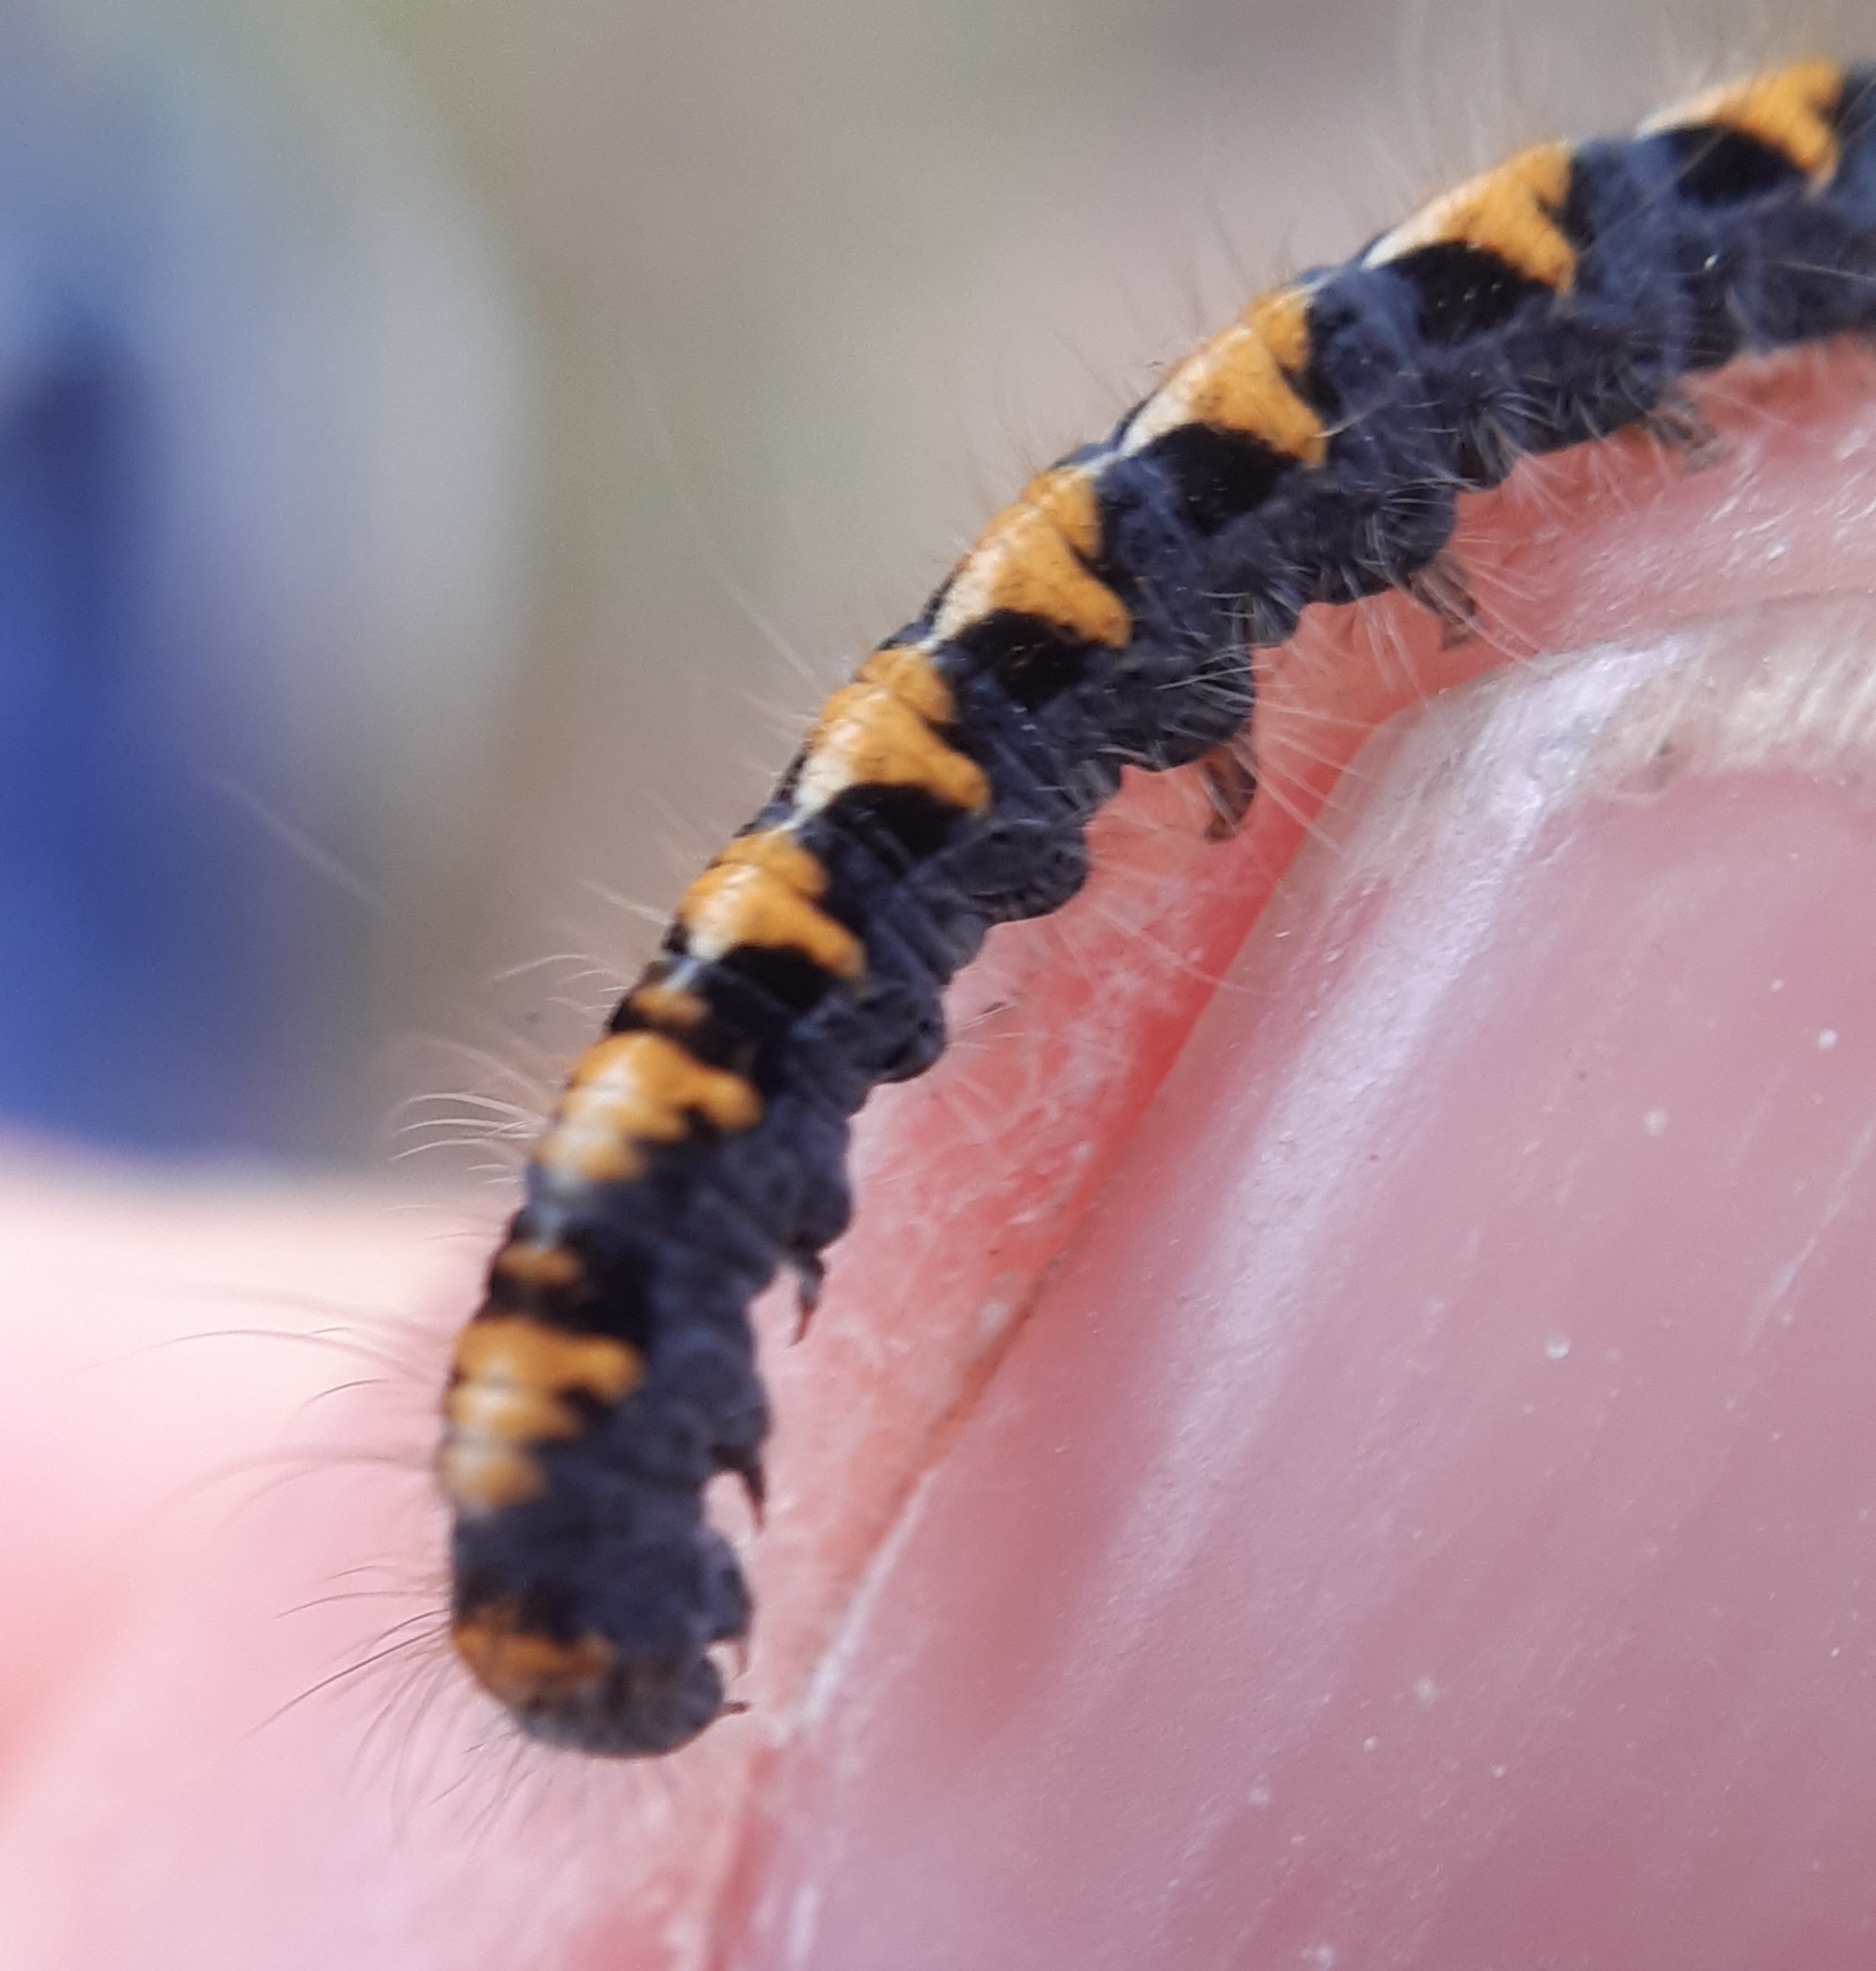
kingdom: Animalia
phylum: Arthropoda
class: Insecta
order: Lepidoptera
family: Lasiocampidae
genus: Lasiocampa
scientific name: Lasiocampa quercus
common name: Oak eggar
